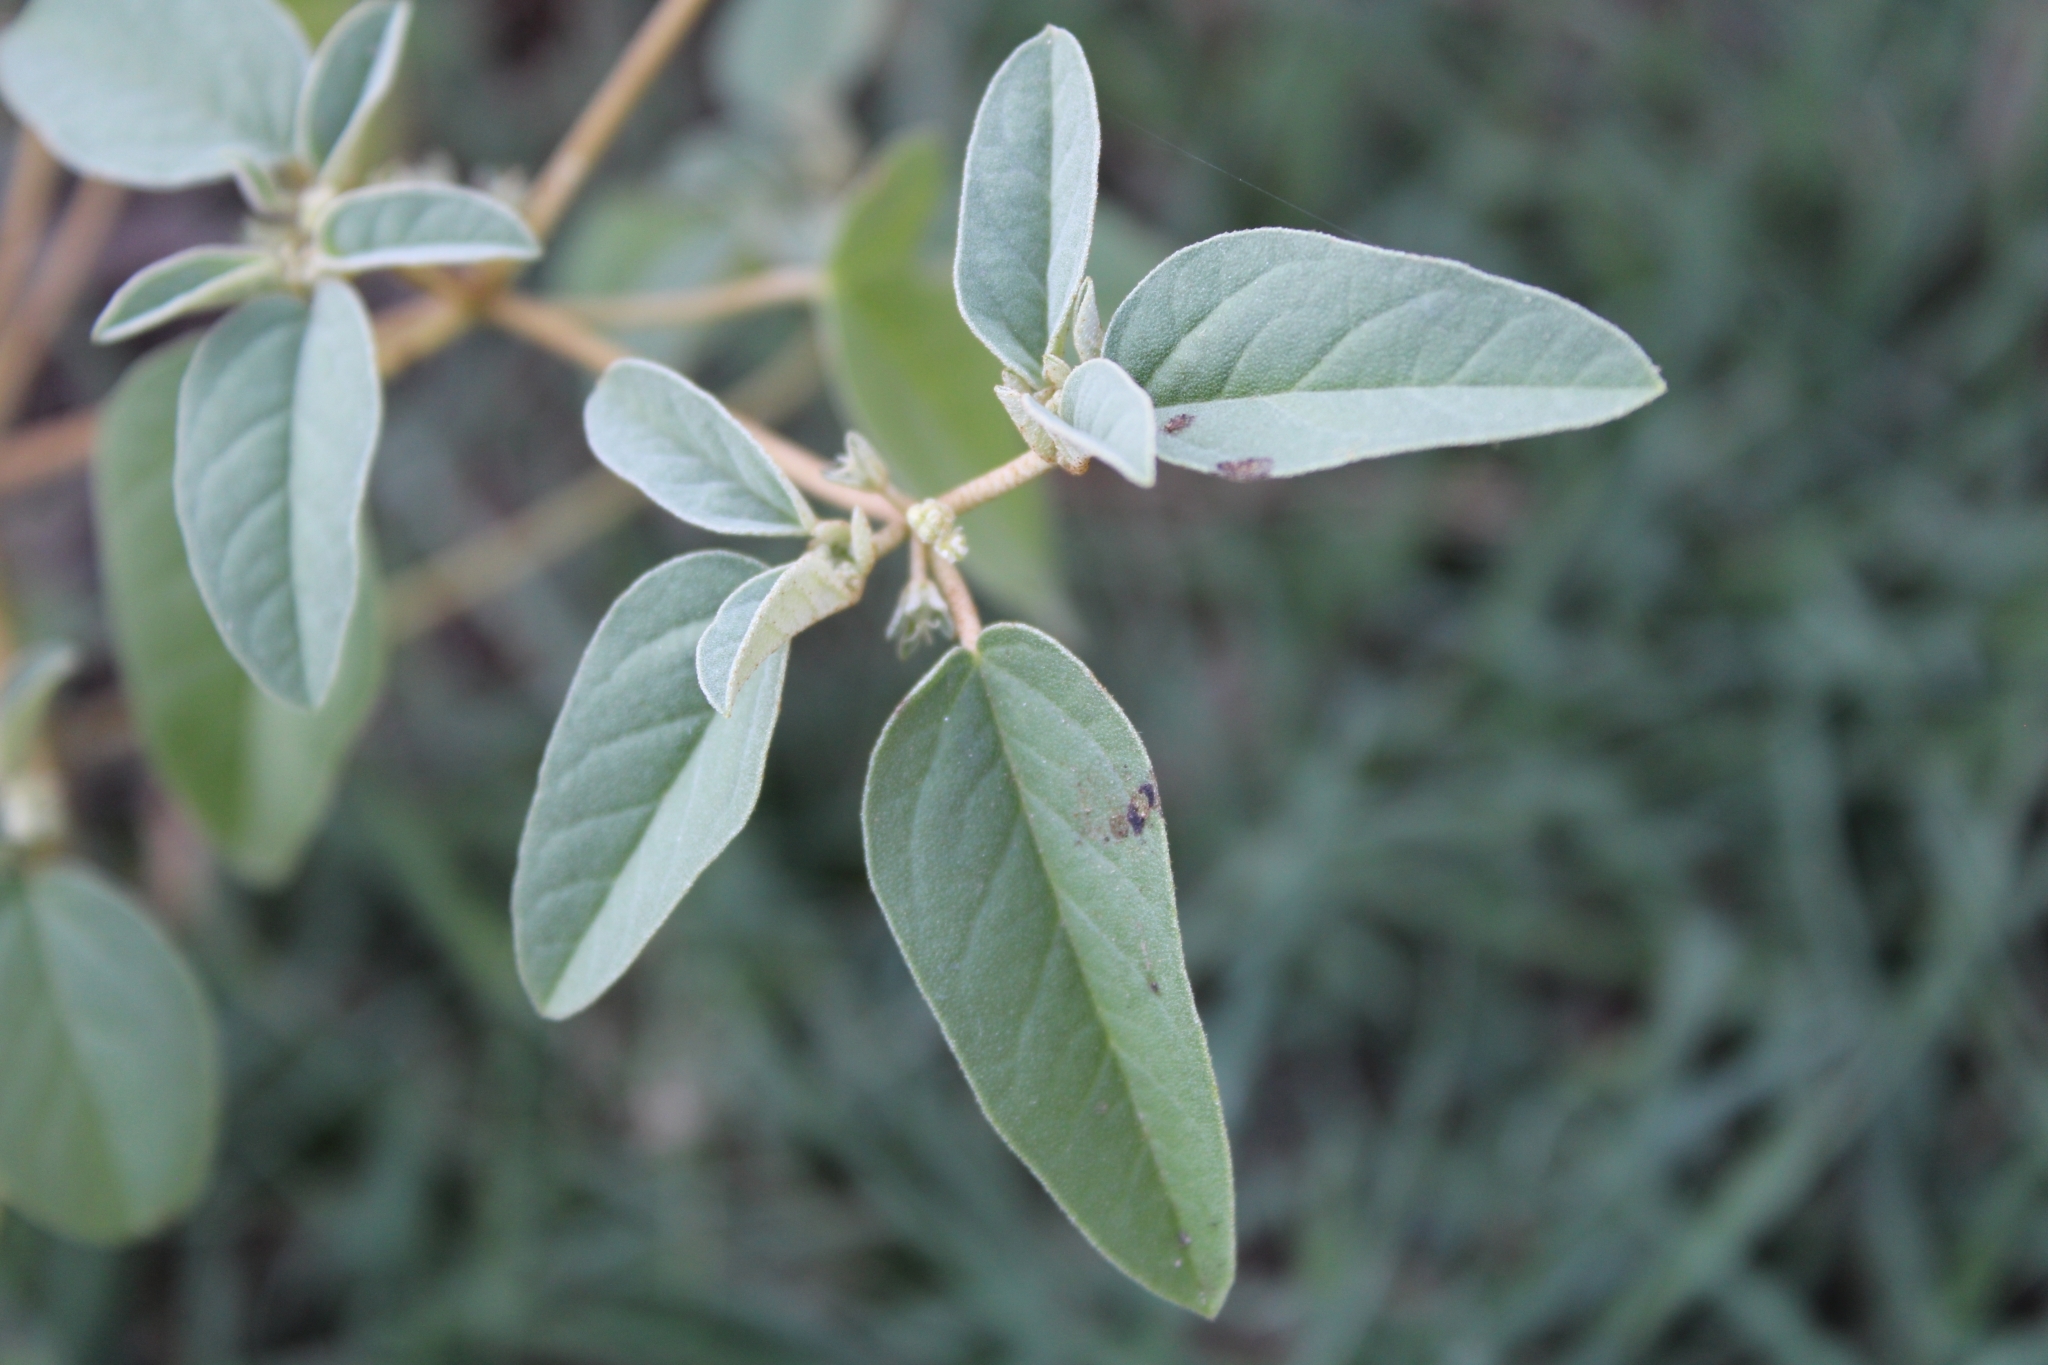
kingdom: Plantae
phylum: Tracheophyta
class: Magnoliopsida
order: Malpighiales
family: Euphorbiaceae
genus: Croton
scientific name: Croton monanthogynus
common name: One-seed croton
